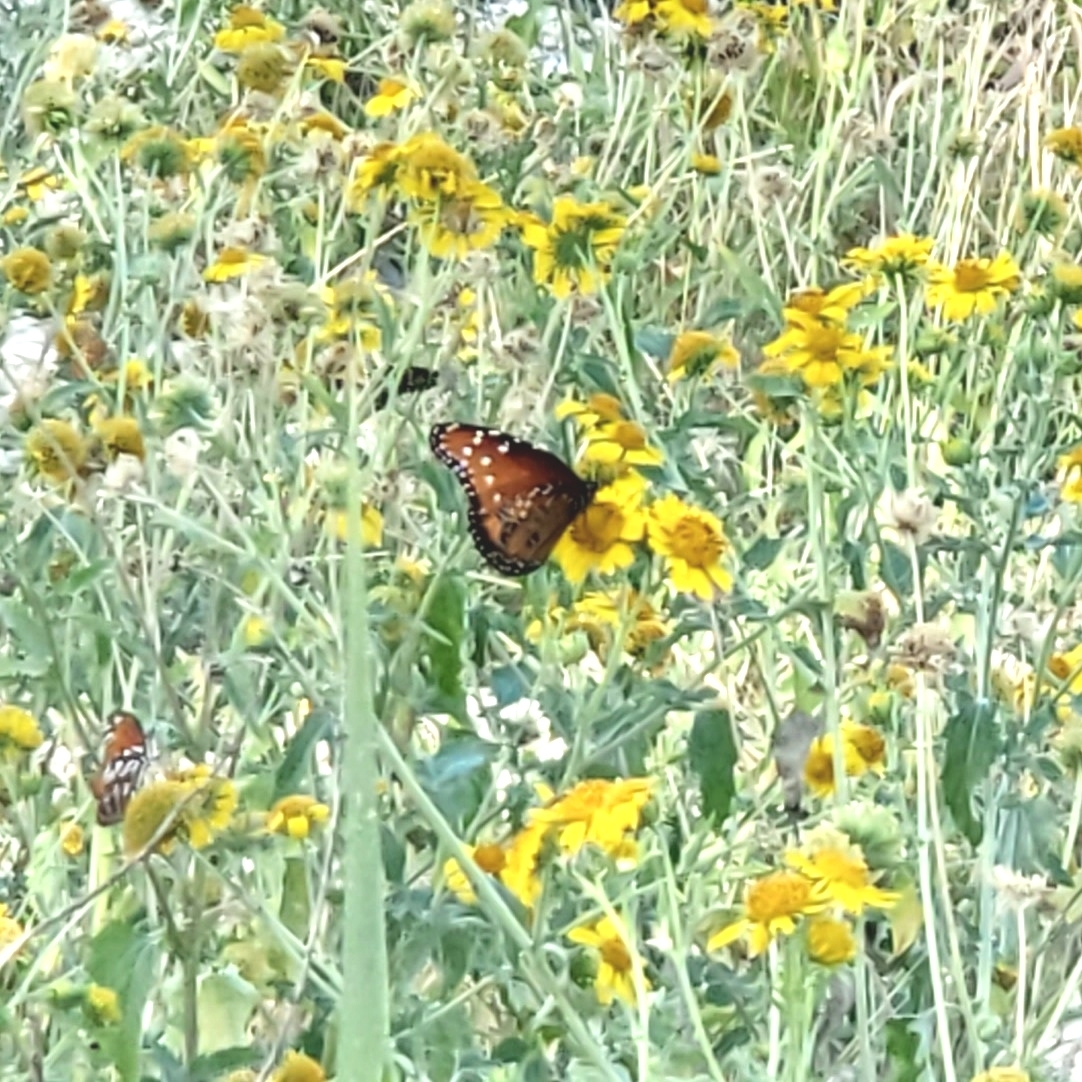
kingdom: Animalia
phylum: Arthropoda
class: Insecta
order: Lepidoptera
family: Nymphalidae
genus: Danaus
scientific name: Danaus gilippus
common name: Queen
